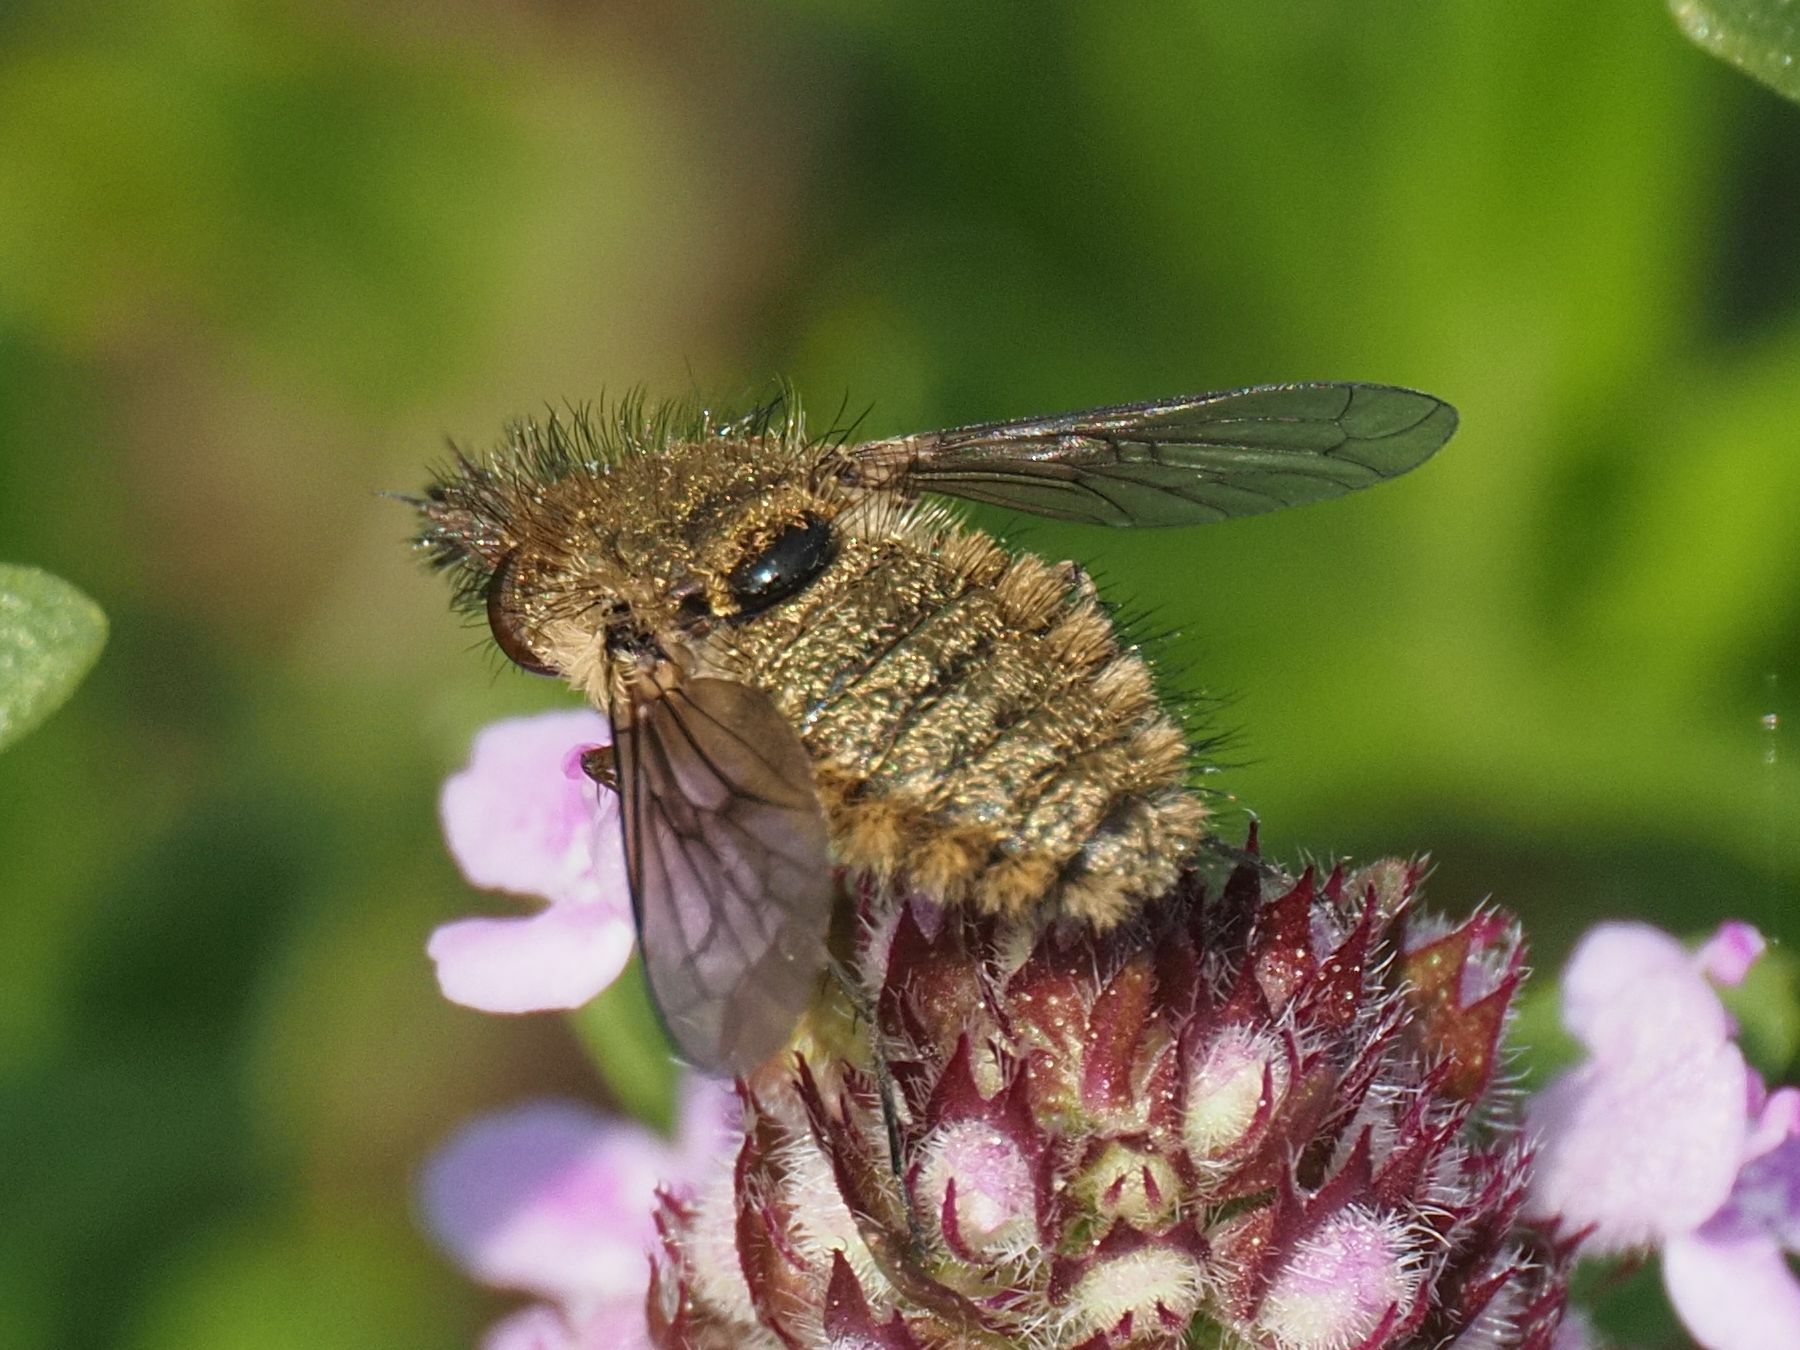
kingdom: Animalia
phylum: Arthropoda
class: Insecta
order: Diptera
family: Bombyliidae
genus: Conophorus
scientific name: Conophorus virescens
